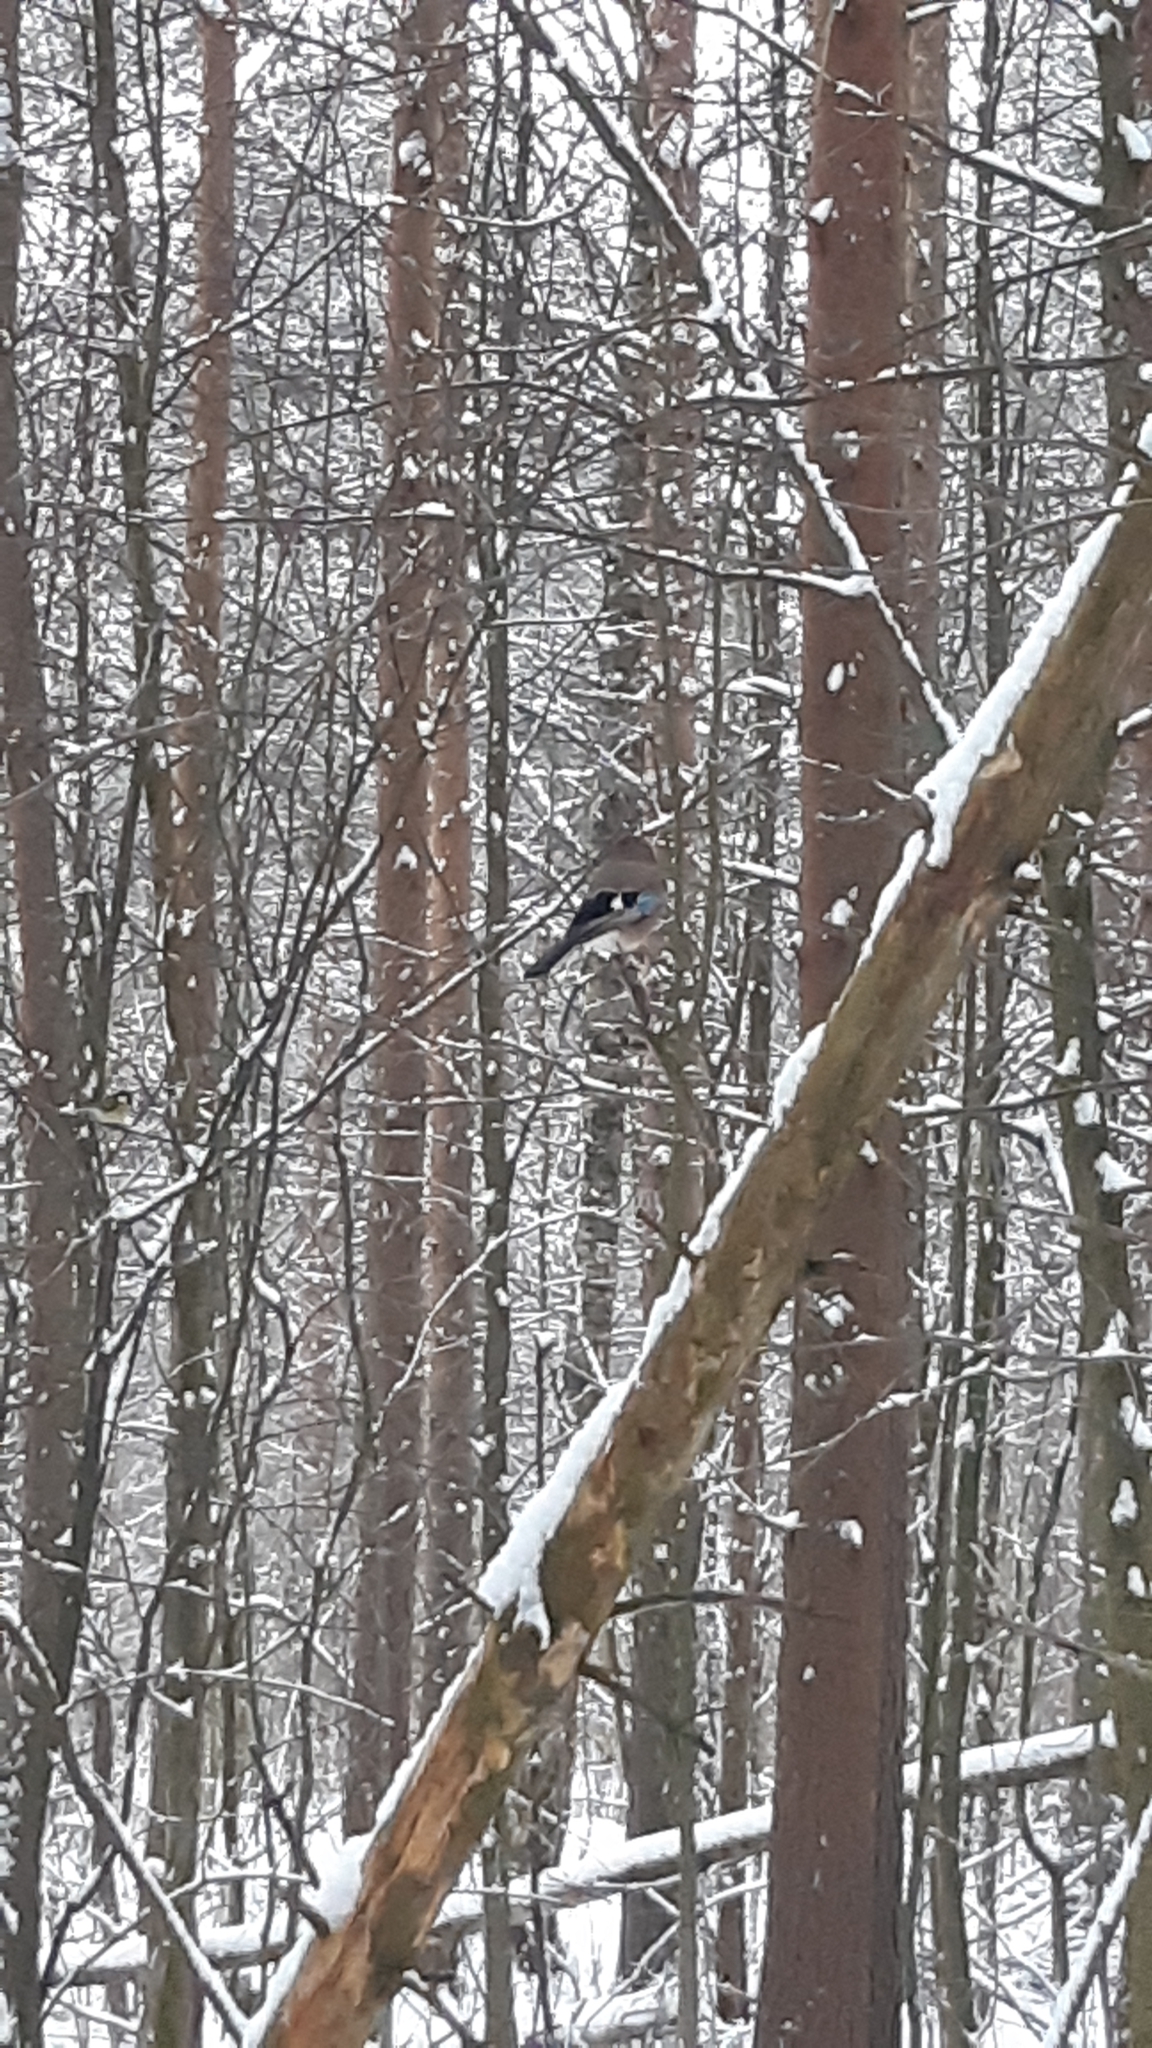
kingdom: Animalia
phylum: Chordata
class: Aves
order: Passeriformes
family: Corvidae
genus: Garrulus
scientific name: Garrulus glandarius
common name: Eurasian jay
